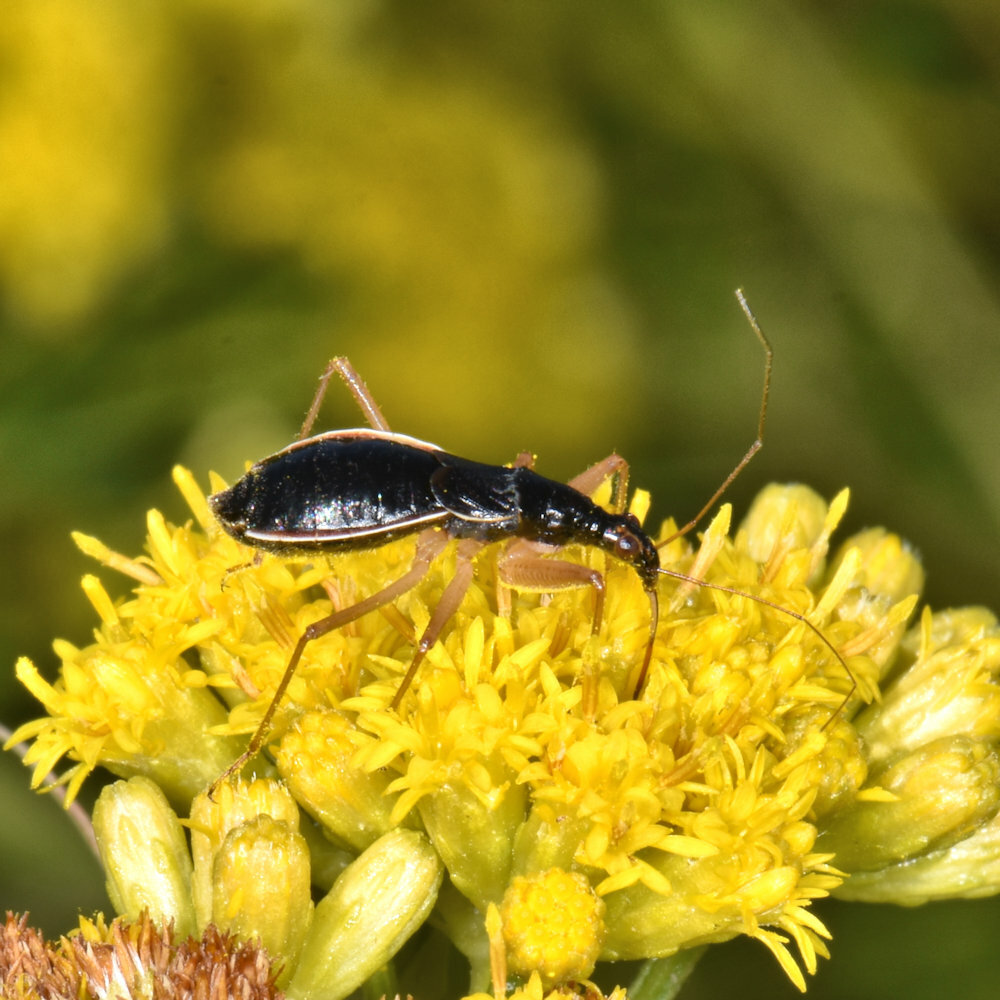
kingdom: Animalia
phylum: Arthropoda
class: Insecta
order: Hemiptera
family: Nabidae
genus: Nabis
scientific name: Nabis
